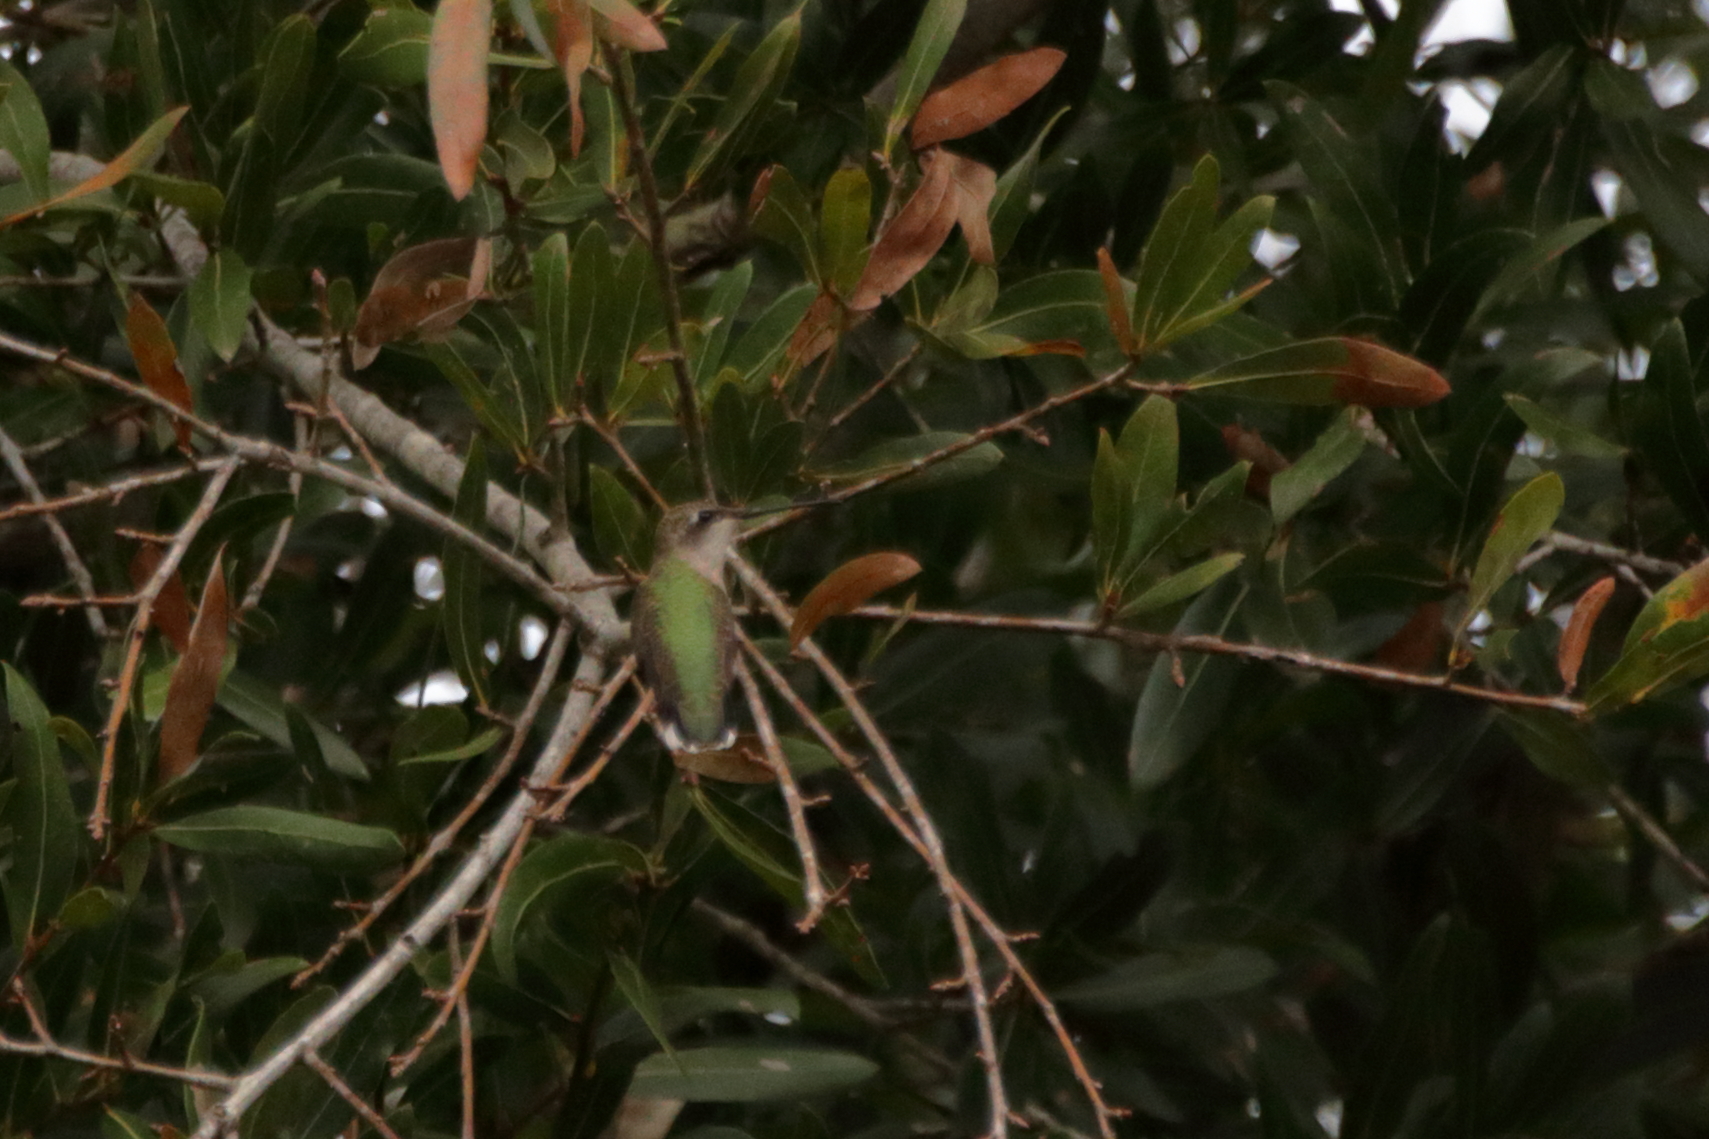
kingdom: Animalia
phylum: Chordata
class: Aves
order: Apodiformes
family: Trochilidae
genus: Archilochus
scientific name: Archilochus colubris
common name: Ruby-throated hummingbird
